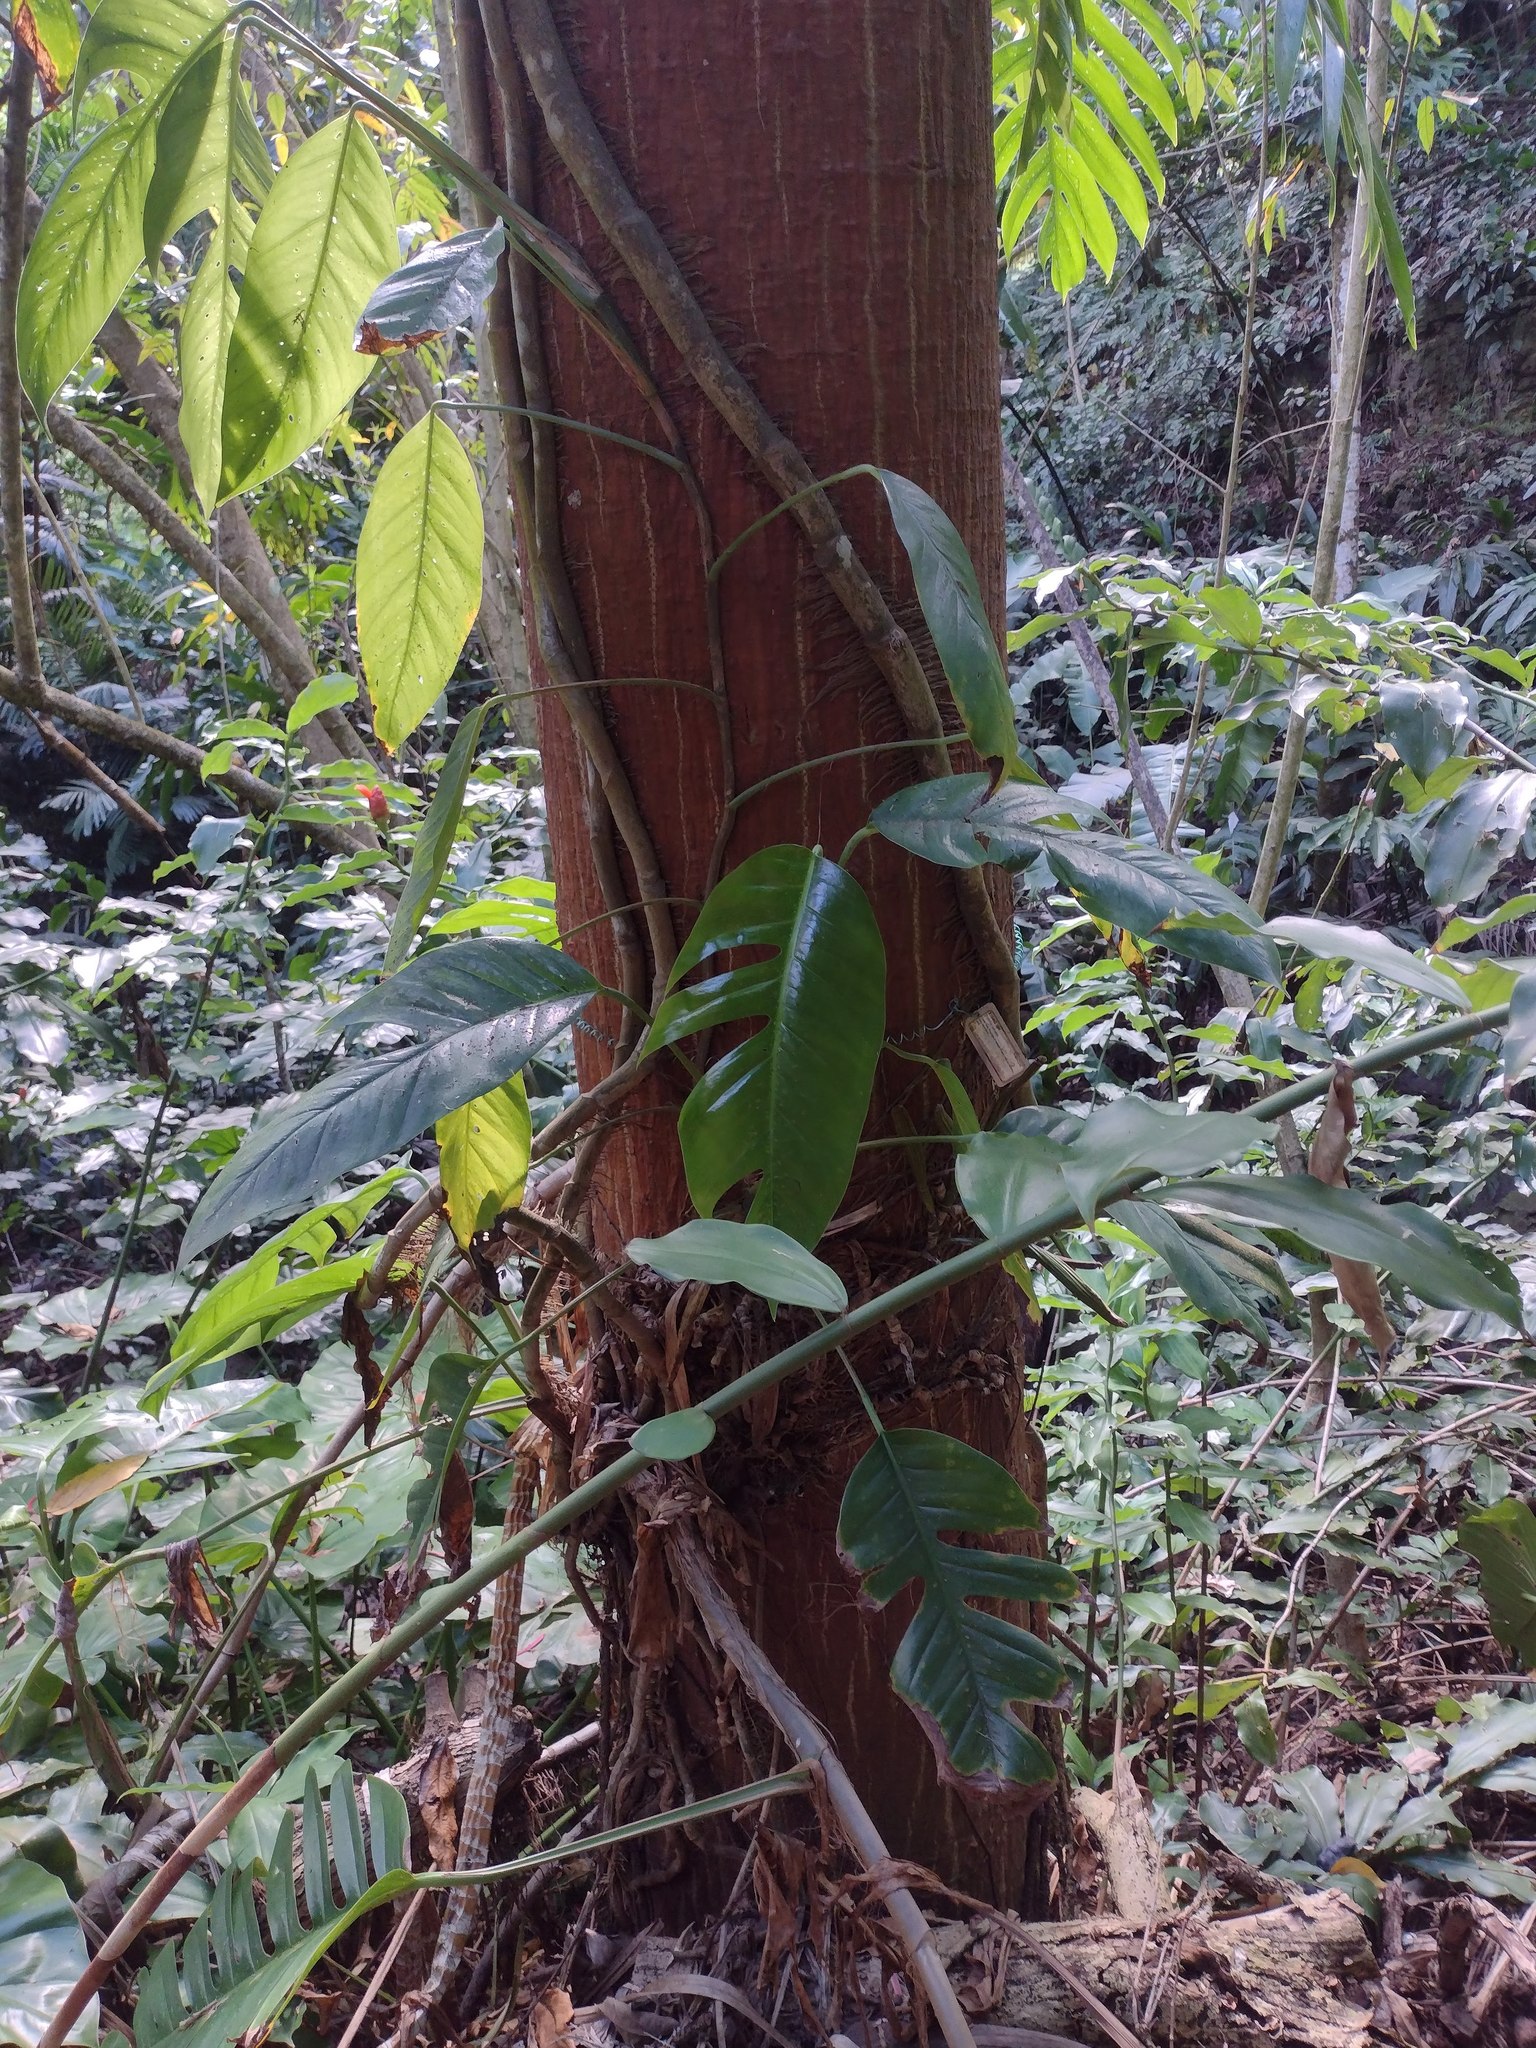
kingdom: Plantae
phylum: Tracheophyta
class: Liliopsida
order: Alismatales
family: Araceae
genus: Epipremnum
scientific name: Epipremnum pinnatum
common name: Centipede tongavine
